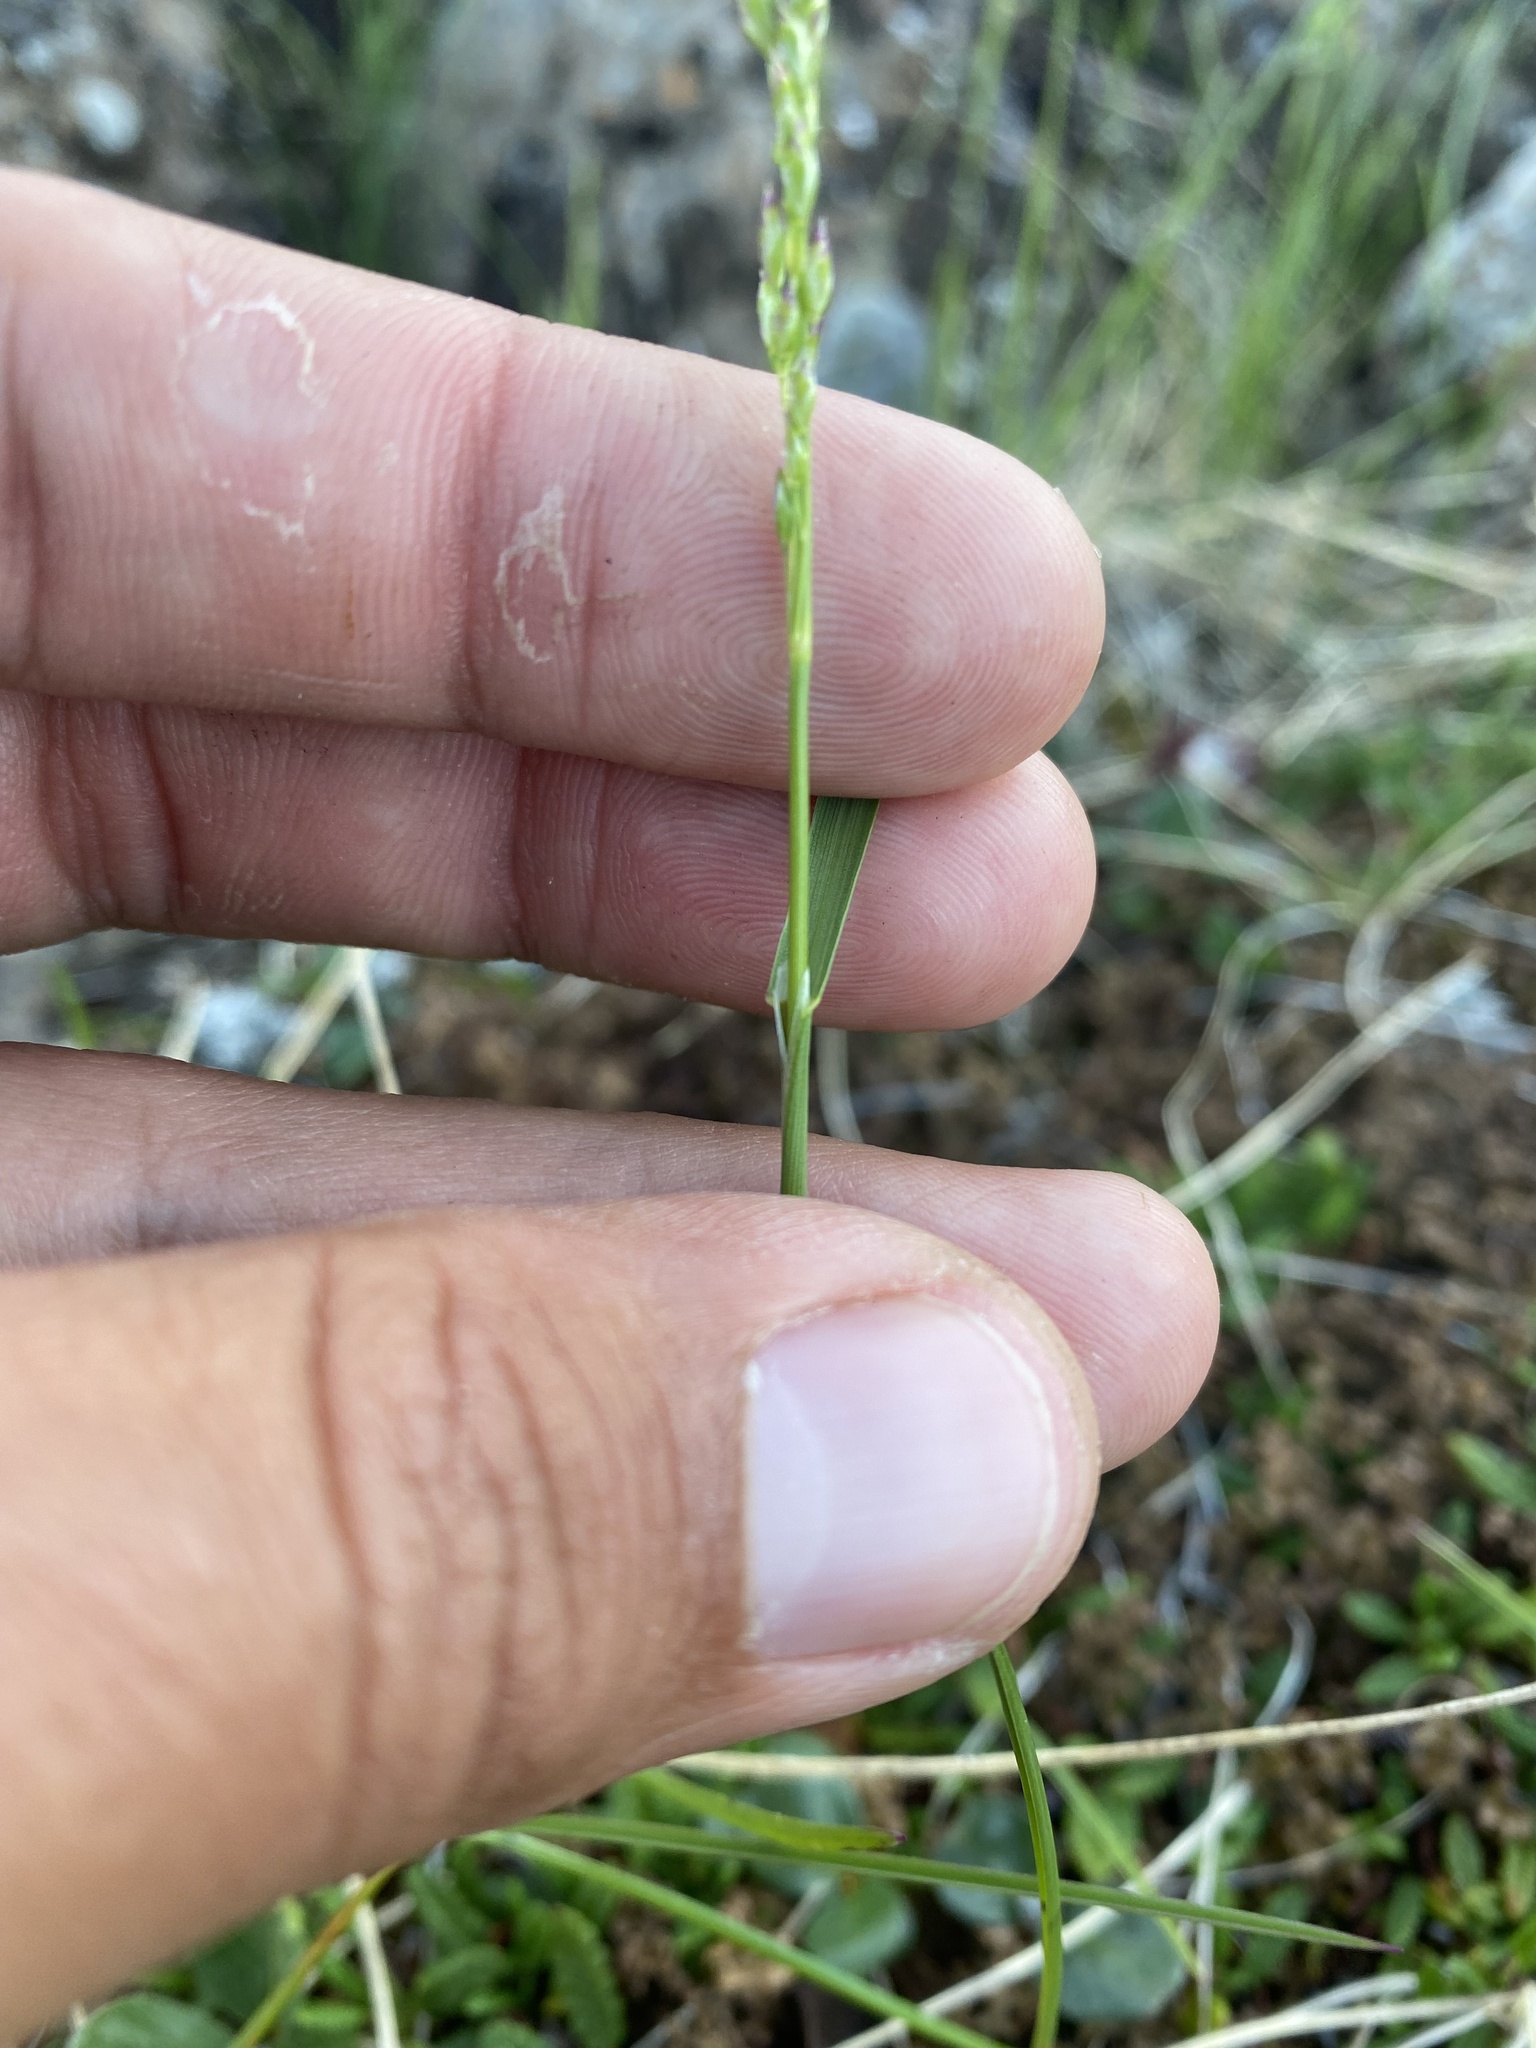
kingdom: Plantae
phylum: Tracheophyta
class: Liliopsida
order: Poales
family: Poaceae
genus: Poa
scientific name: Poa alpigena
